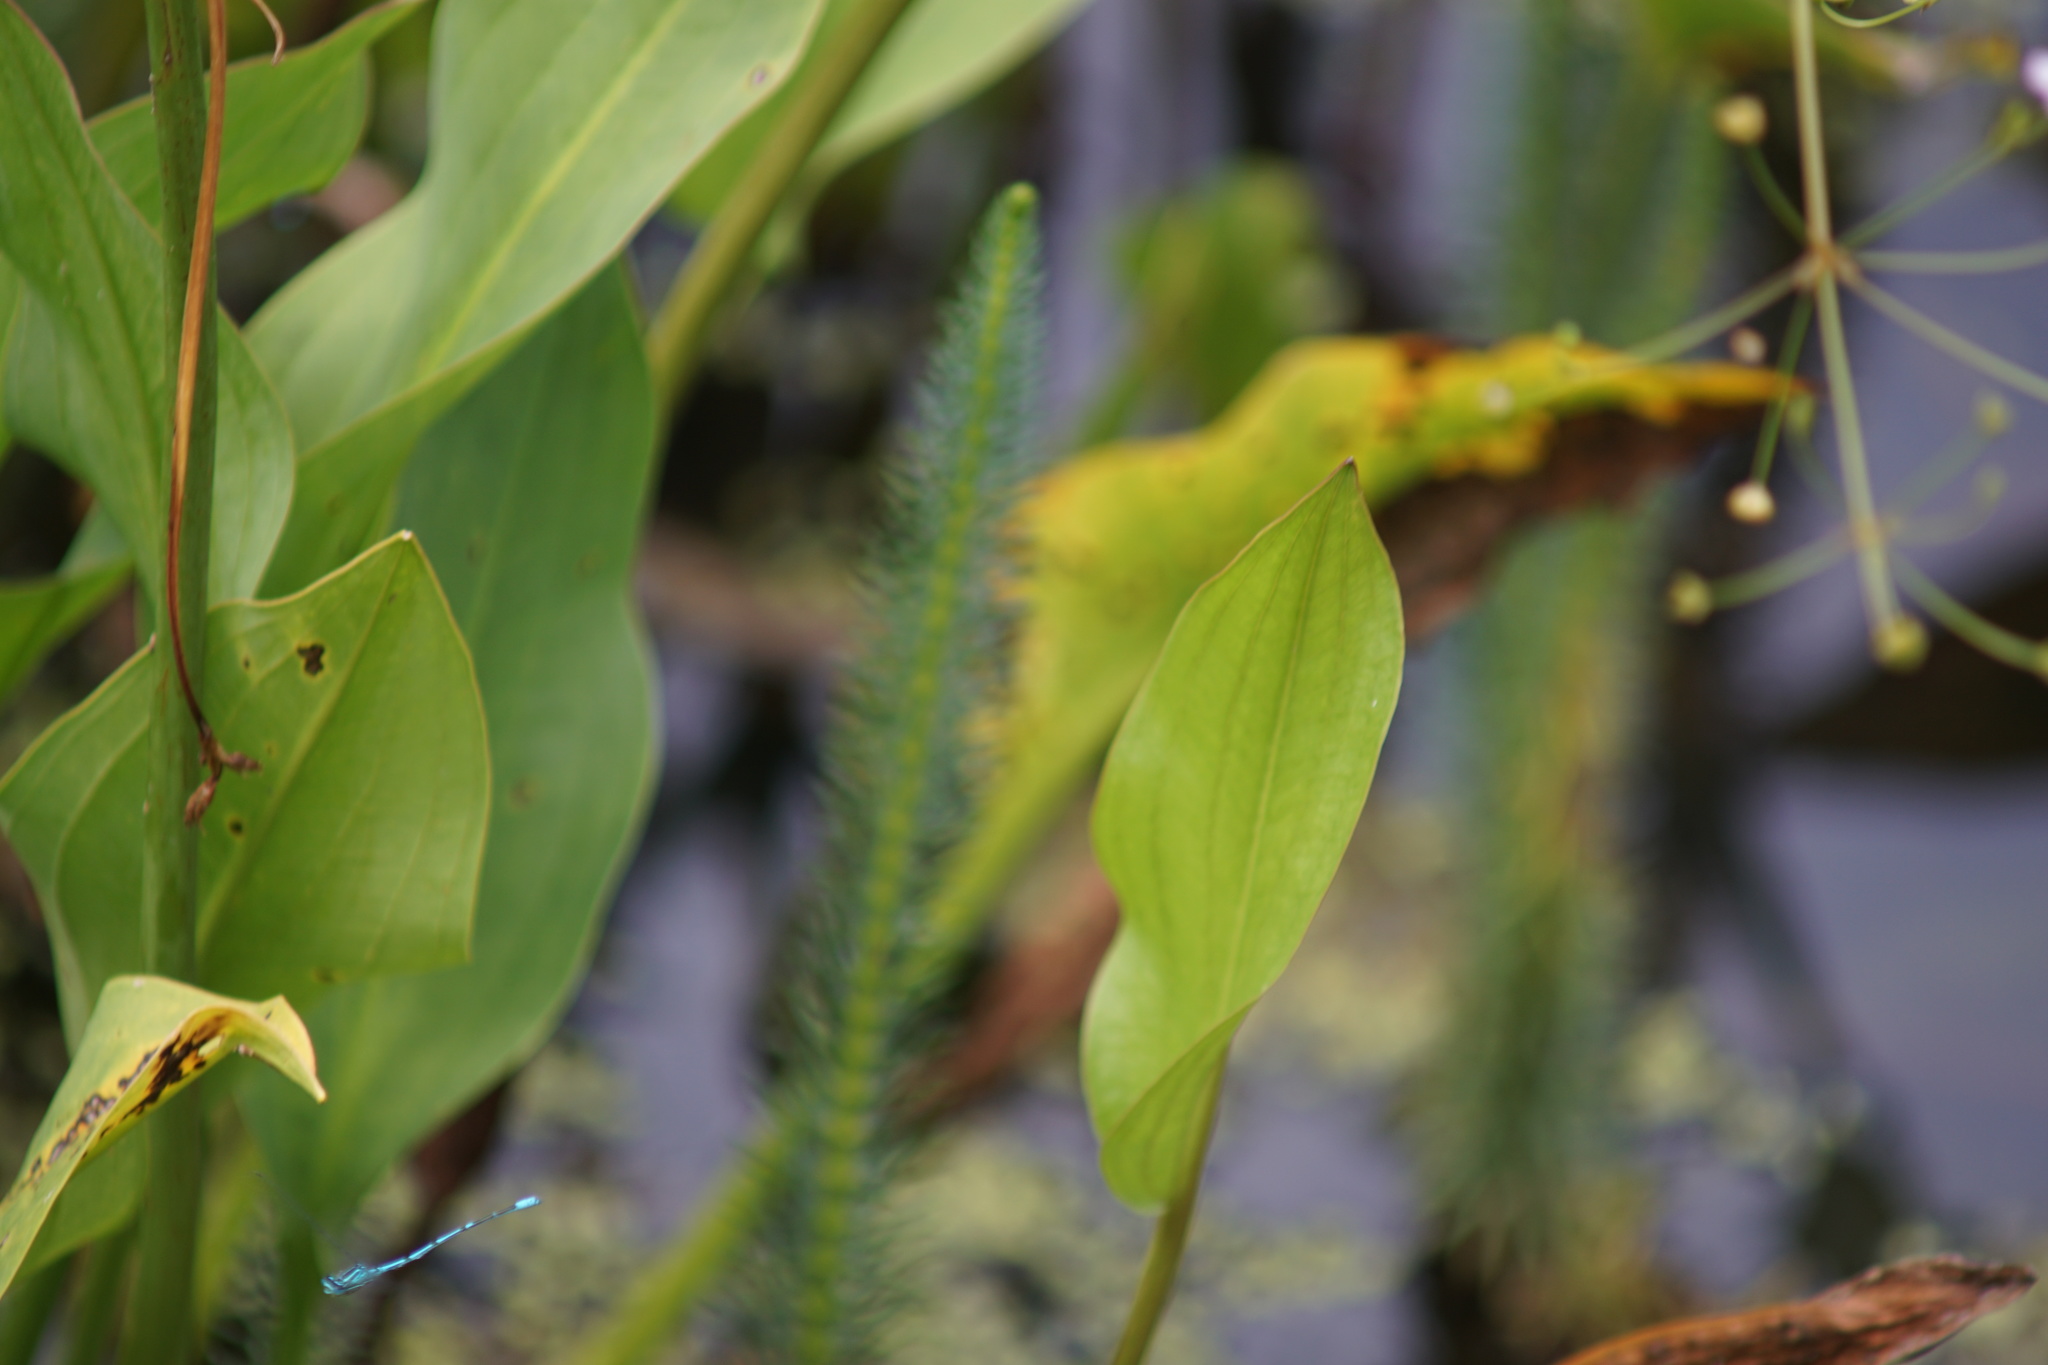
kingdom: Animalia
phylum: Arthropoda
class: Insecta
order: Odonata
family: Coenagrionidae
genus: Coenagrion
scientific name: Coenagrion puella
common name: Azure damselfly
